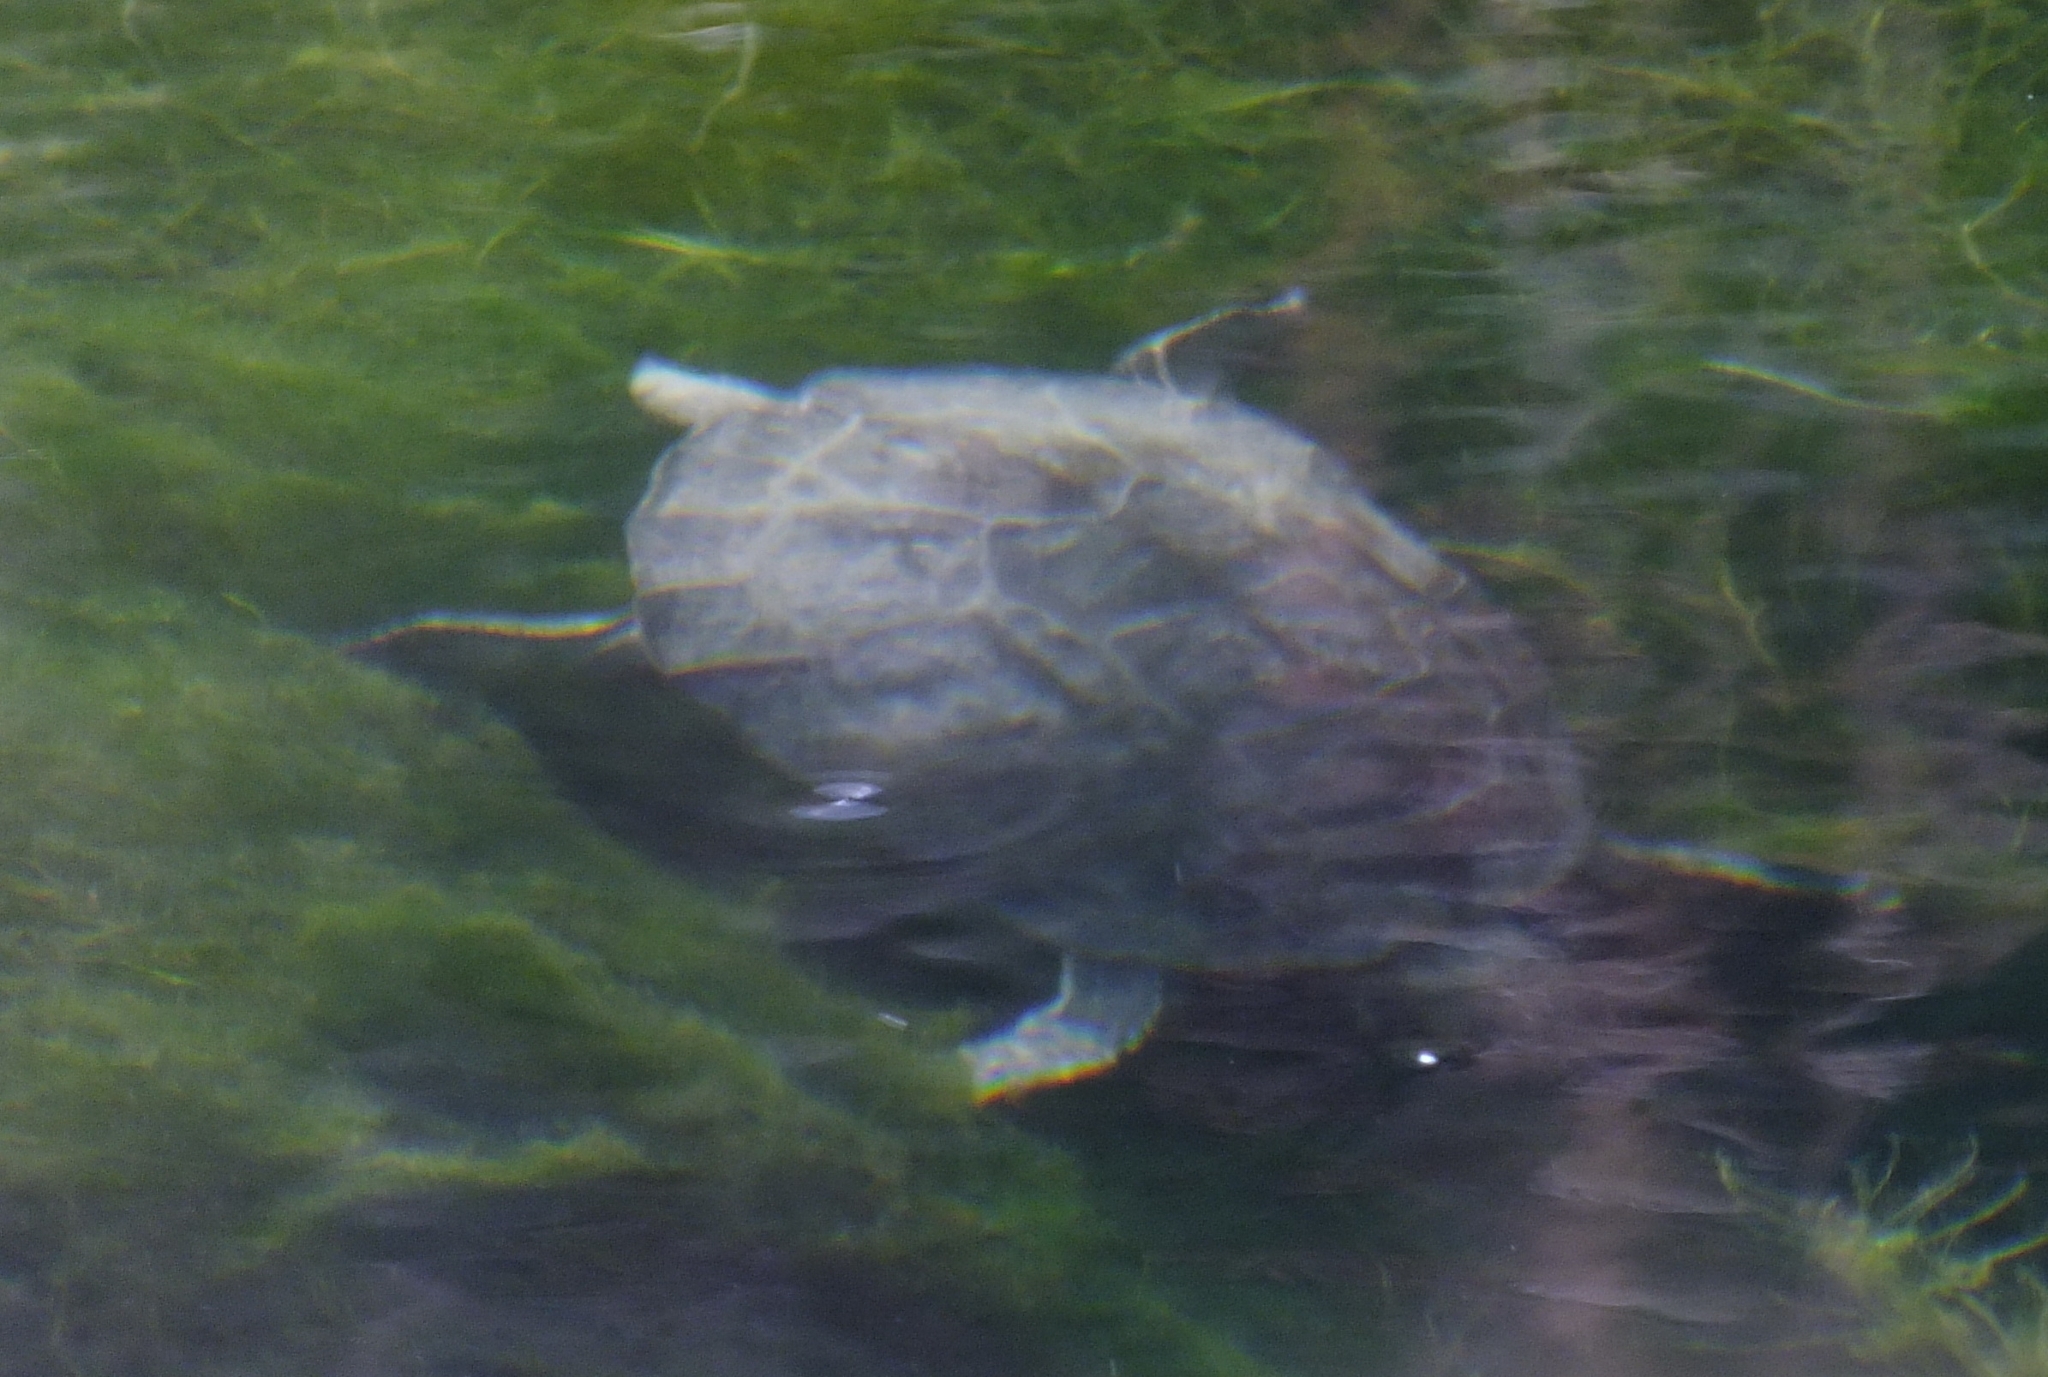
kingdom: Animalia
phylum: Chordata
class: Testudines
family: Geoemydidae
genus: Mauremys
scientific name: Mauremys rivulata
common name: Western caspian turtle
